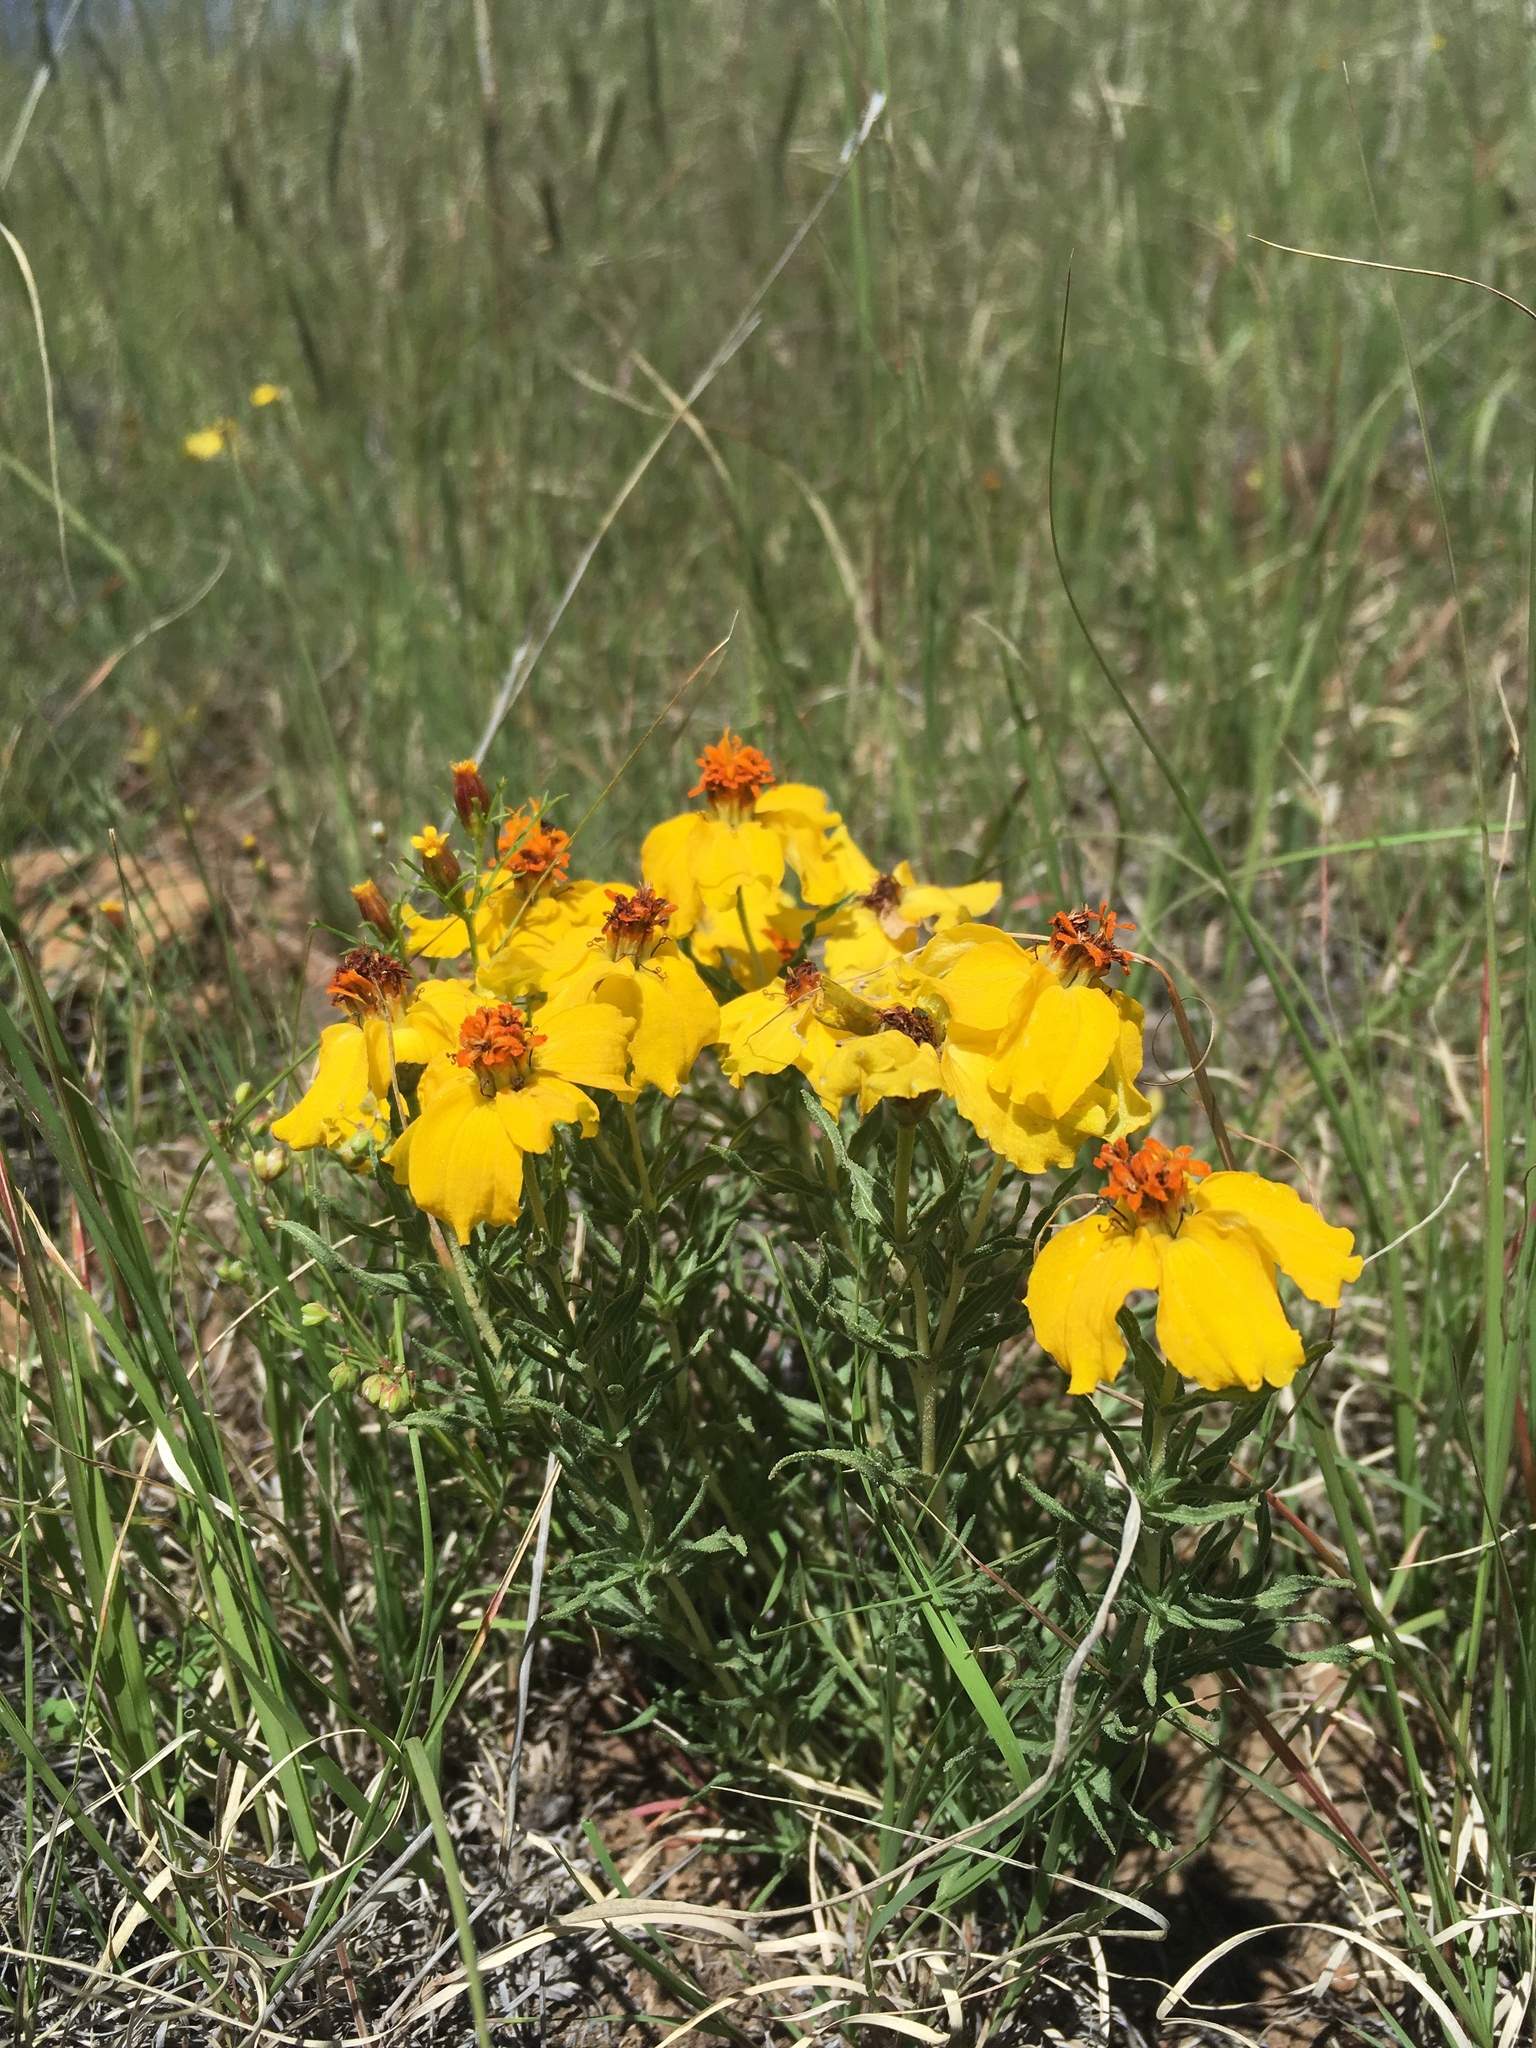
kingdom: Plantae
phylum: Tracheophyta
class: Magnoliopsida
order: Asterales
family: Asteraceae
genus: Zinnia
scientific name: Zinnia grandiflora
